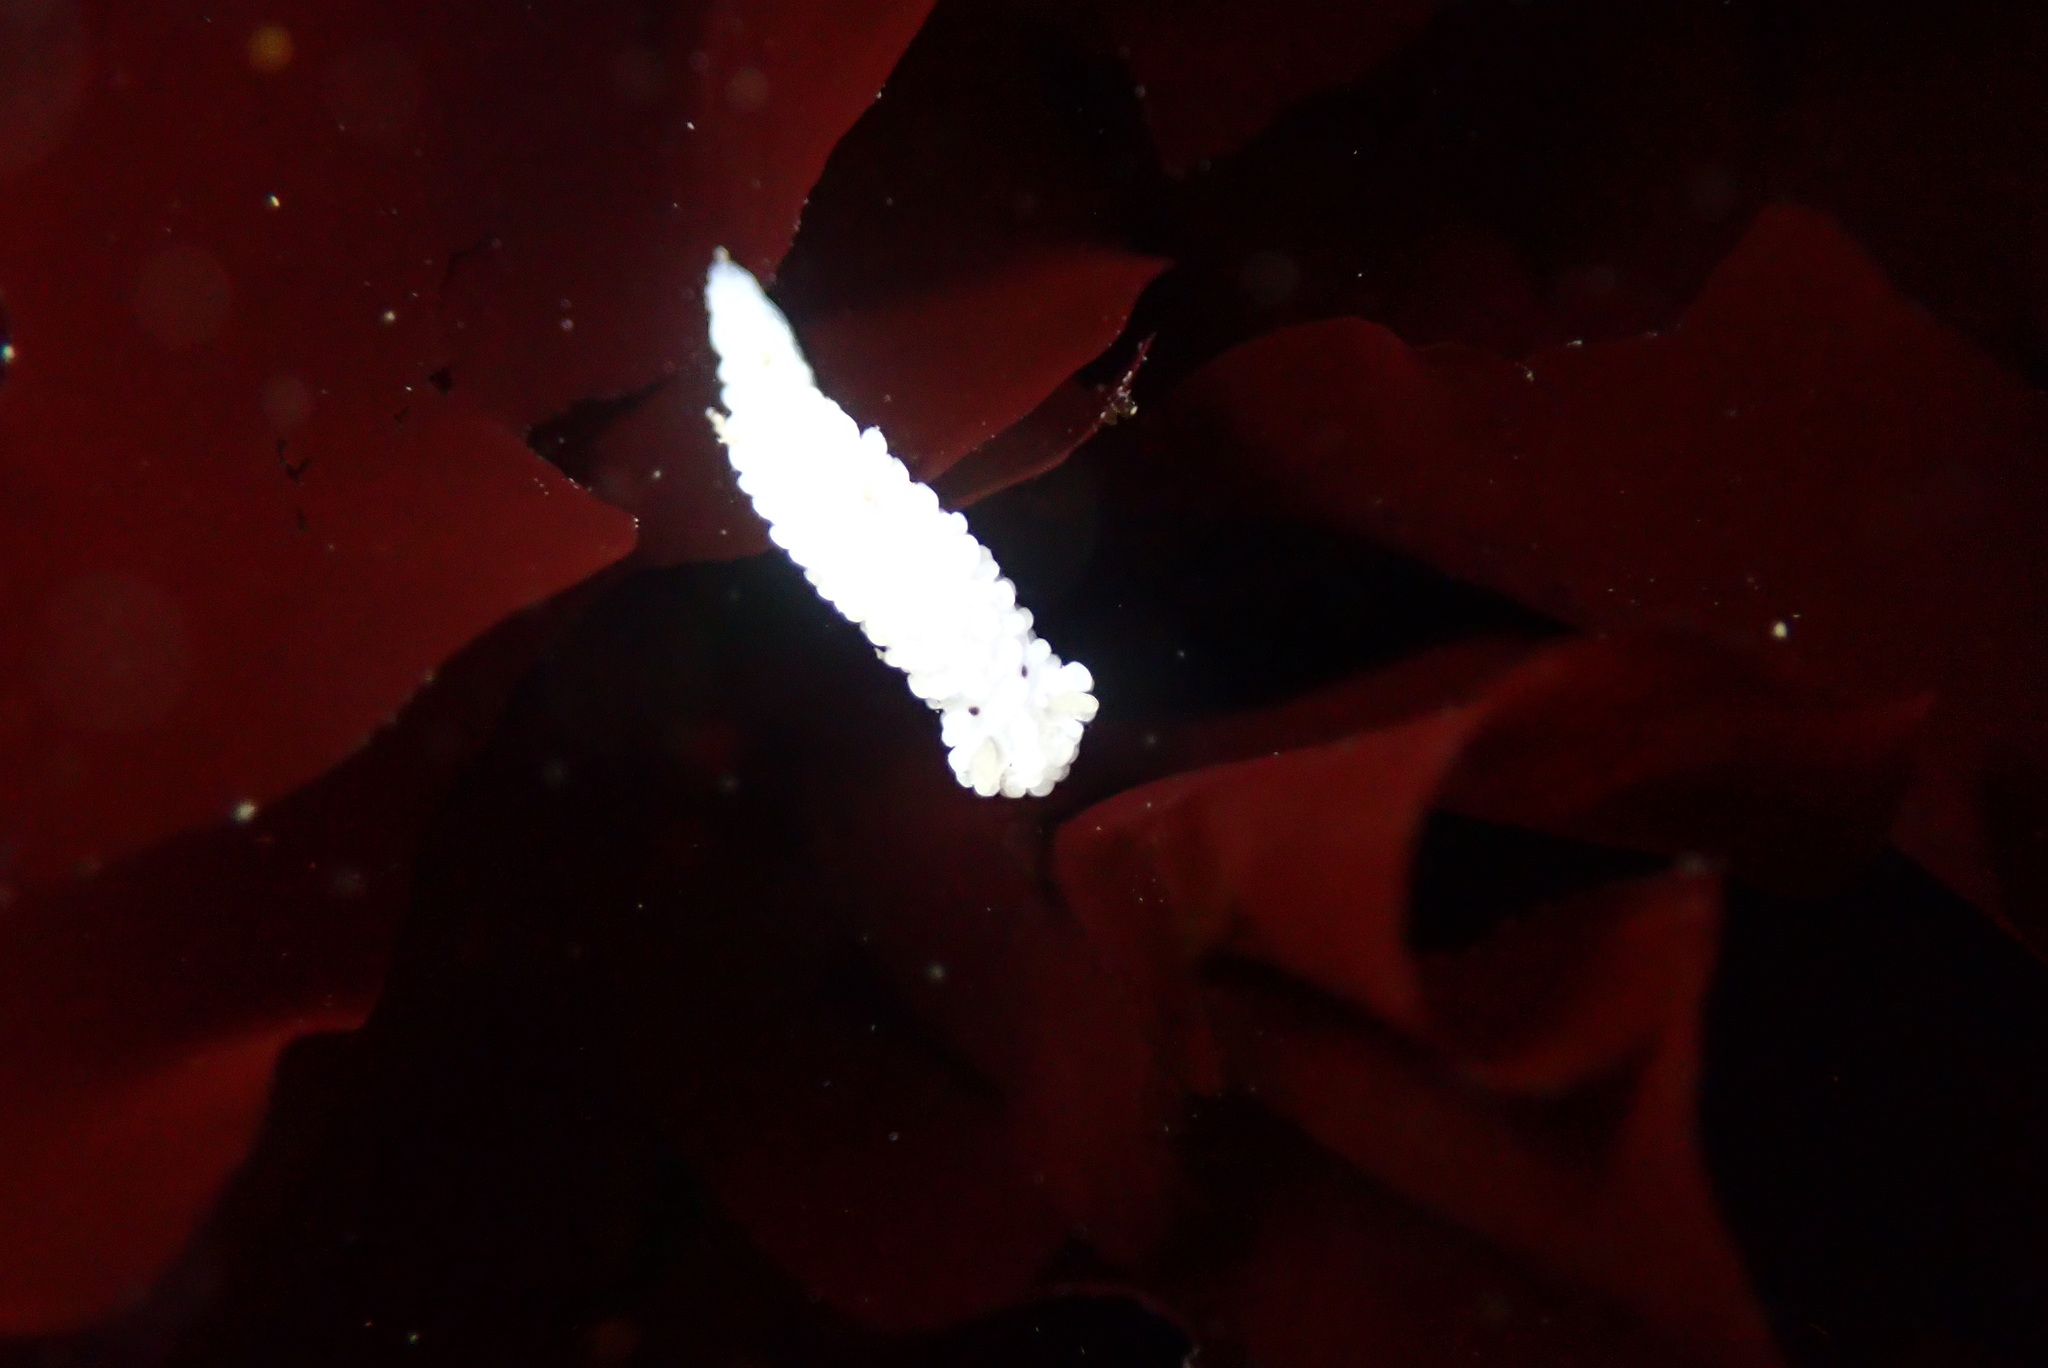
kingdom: Animalia
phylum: Mollusca
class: Gastropoda
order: Nudibranchia
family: Aegiridae
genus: Aegires
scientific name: Aegires albopunctatus
